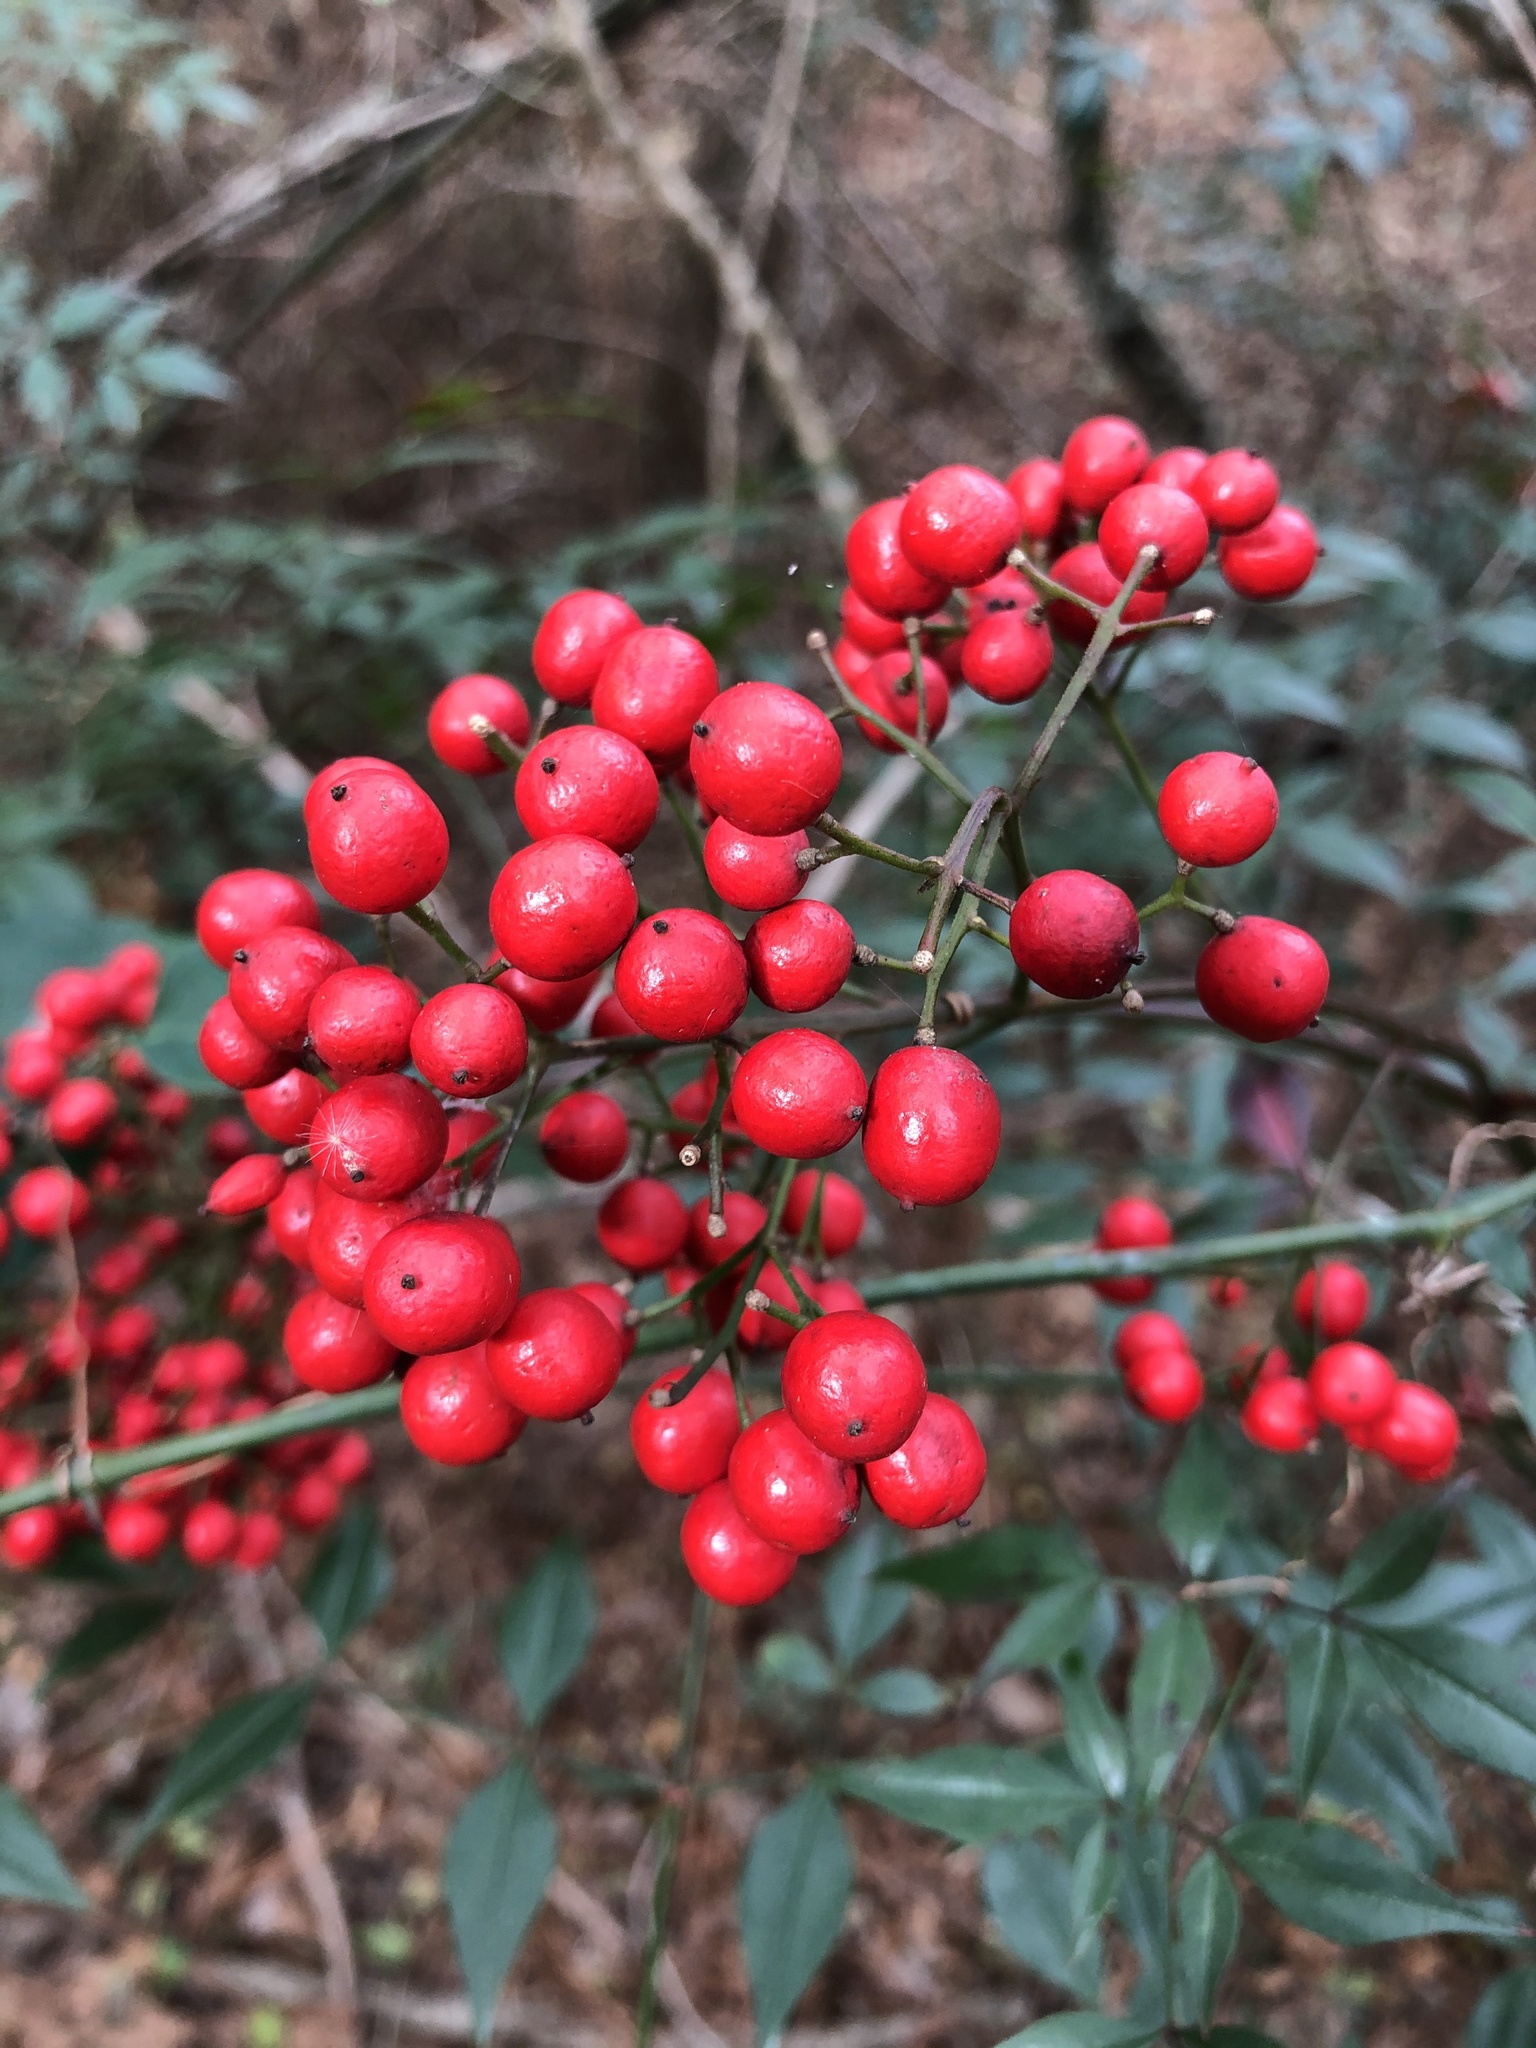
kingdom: Plantae
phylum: Tracheophyta
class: Magnoliopsida
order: Ranunculales
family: Berberidaceae
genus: Nandina
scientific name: Nandina domestica
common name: Sacred bamboo
